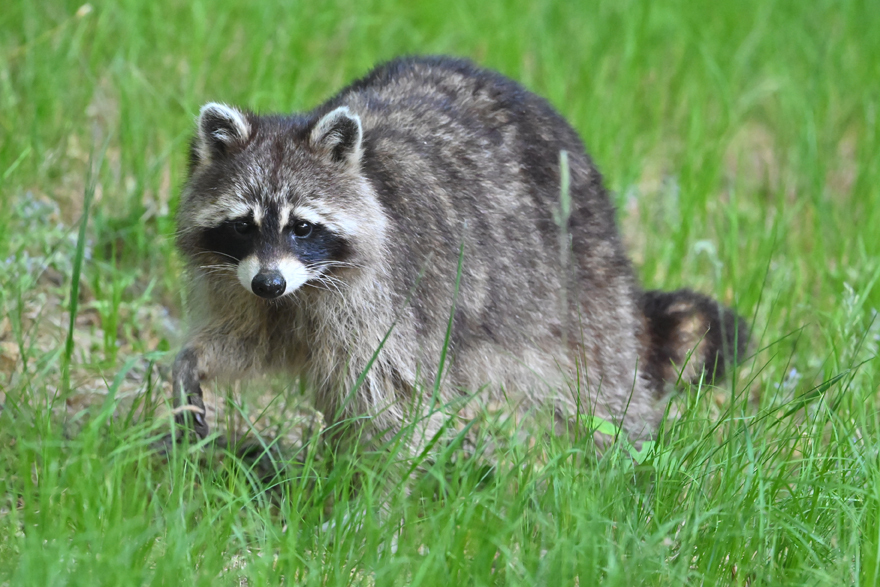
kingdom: Animalia
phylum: Chordata
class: Mammalia
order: Carnivora
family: Procyonidae
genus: Procyon
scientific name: Procyon lotor
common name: Raccoon
